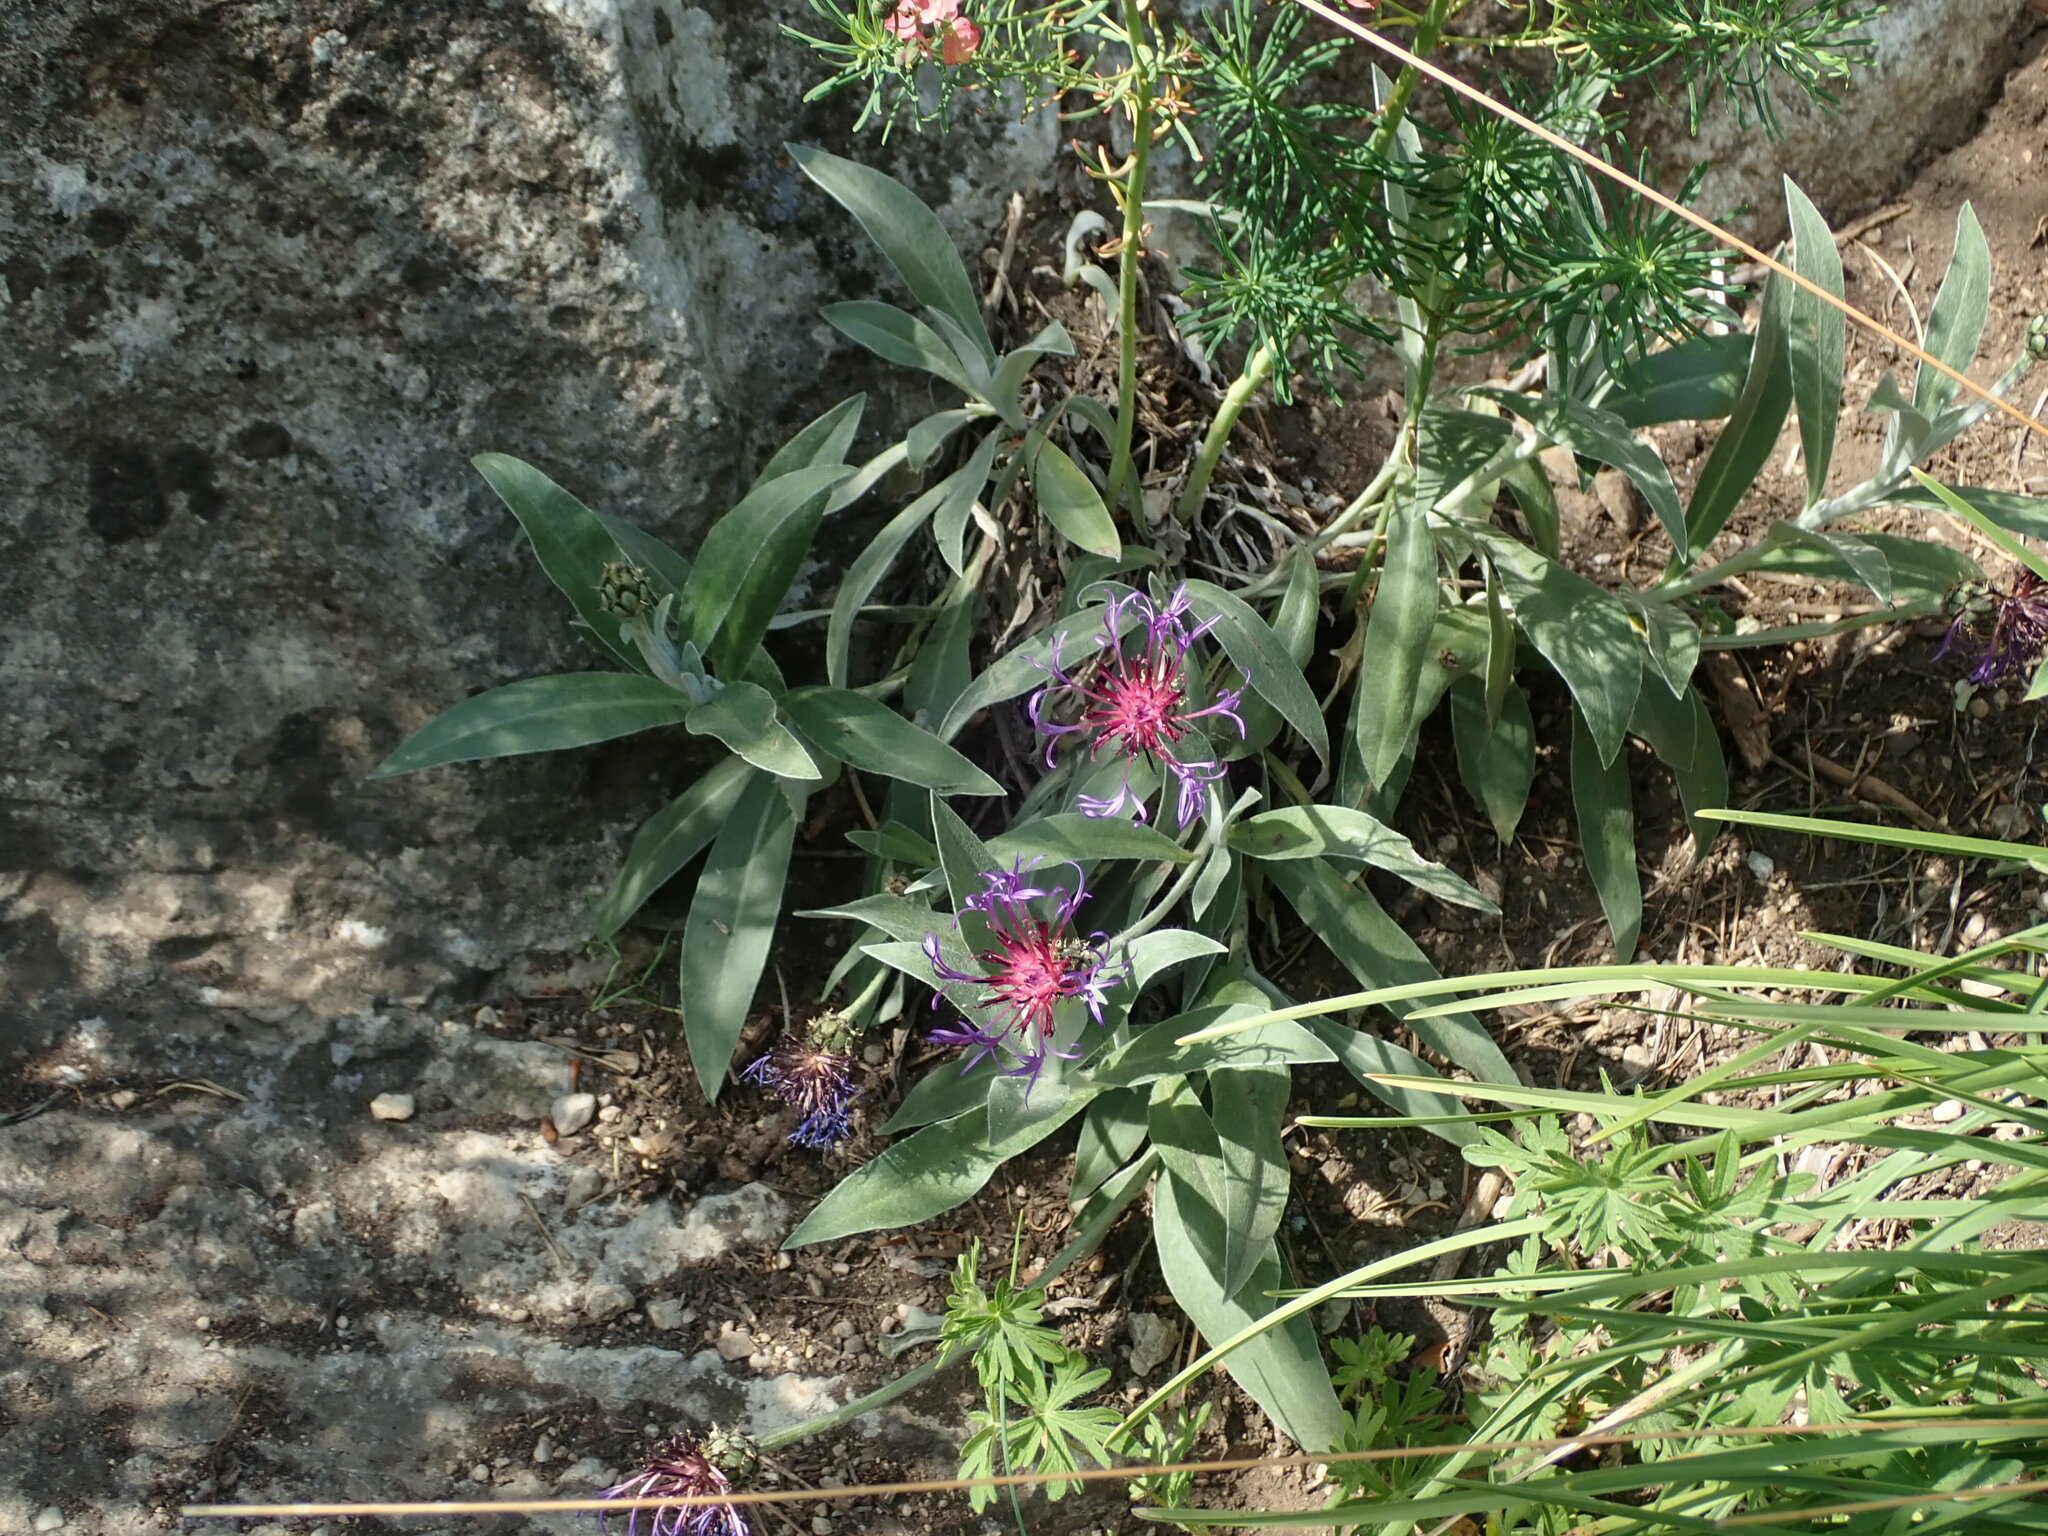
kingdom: Plantae
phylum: Tracheophyta
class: Magnoliopsida
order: Asterales
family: Asteraceae
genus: Centaurea
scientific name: Centaurea triumfettii
